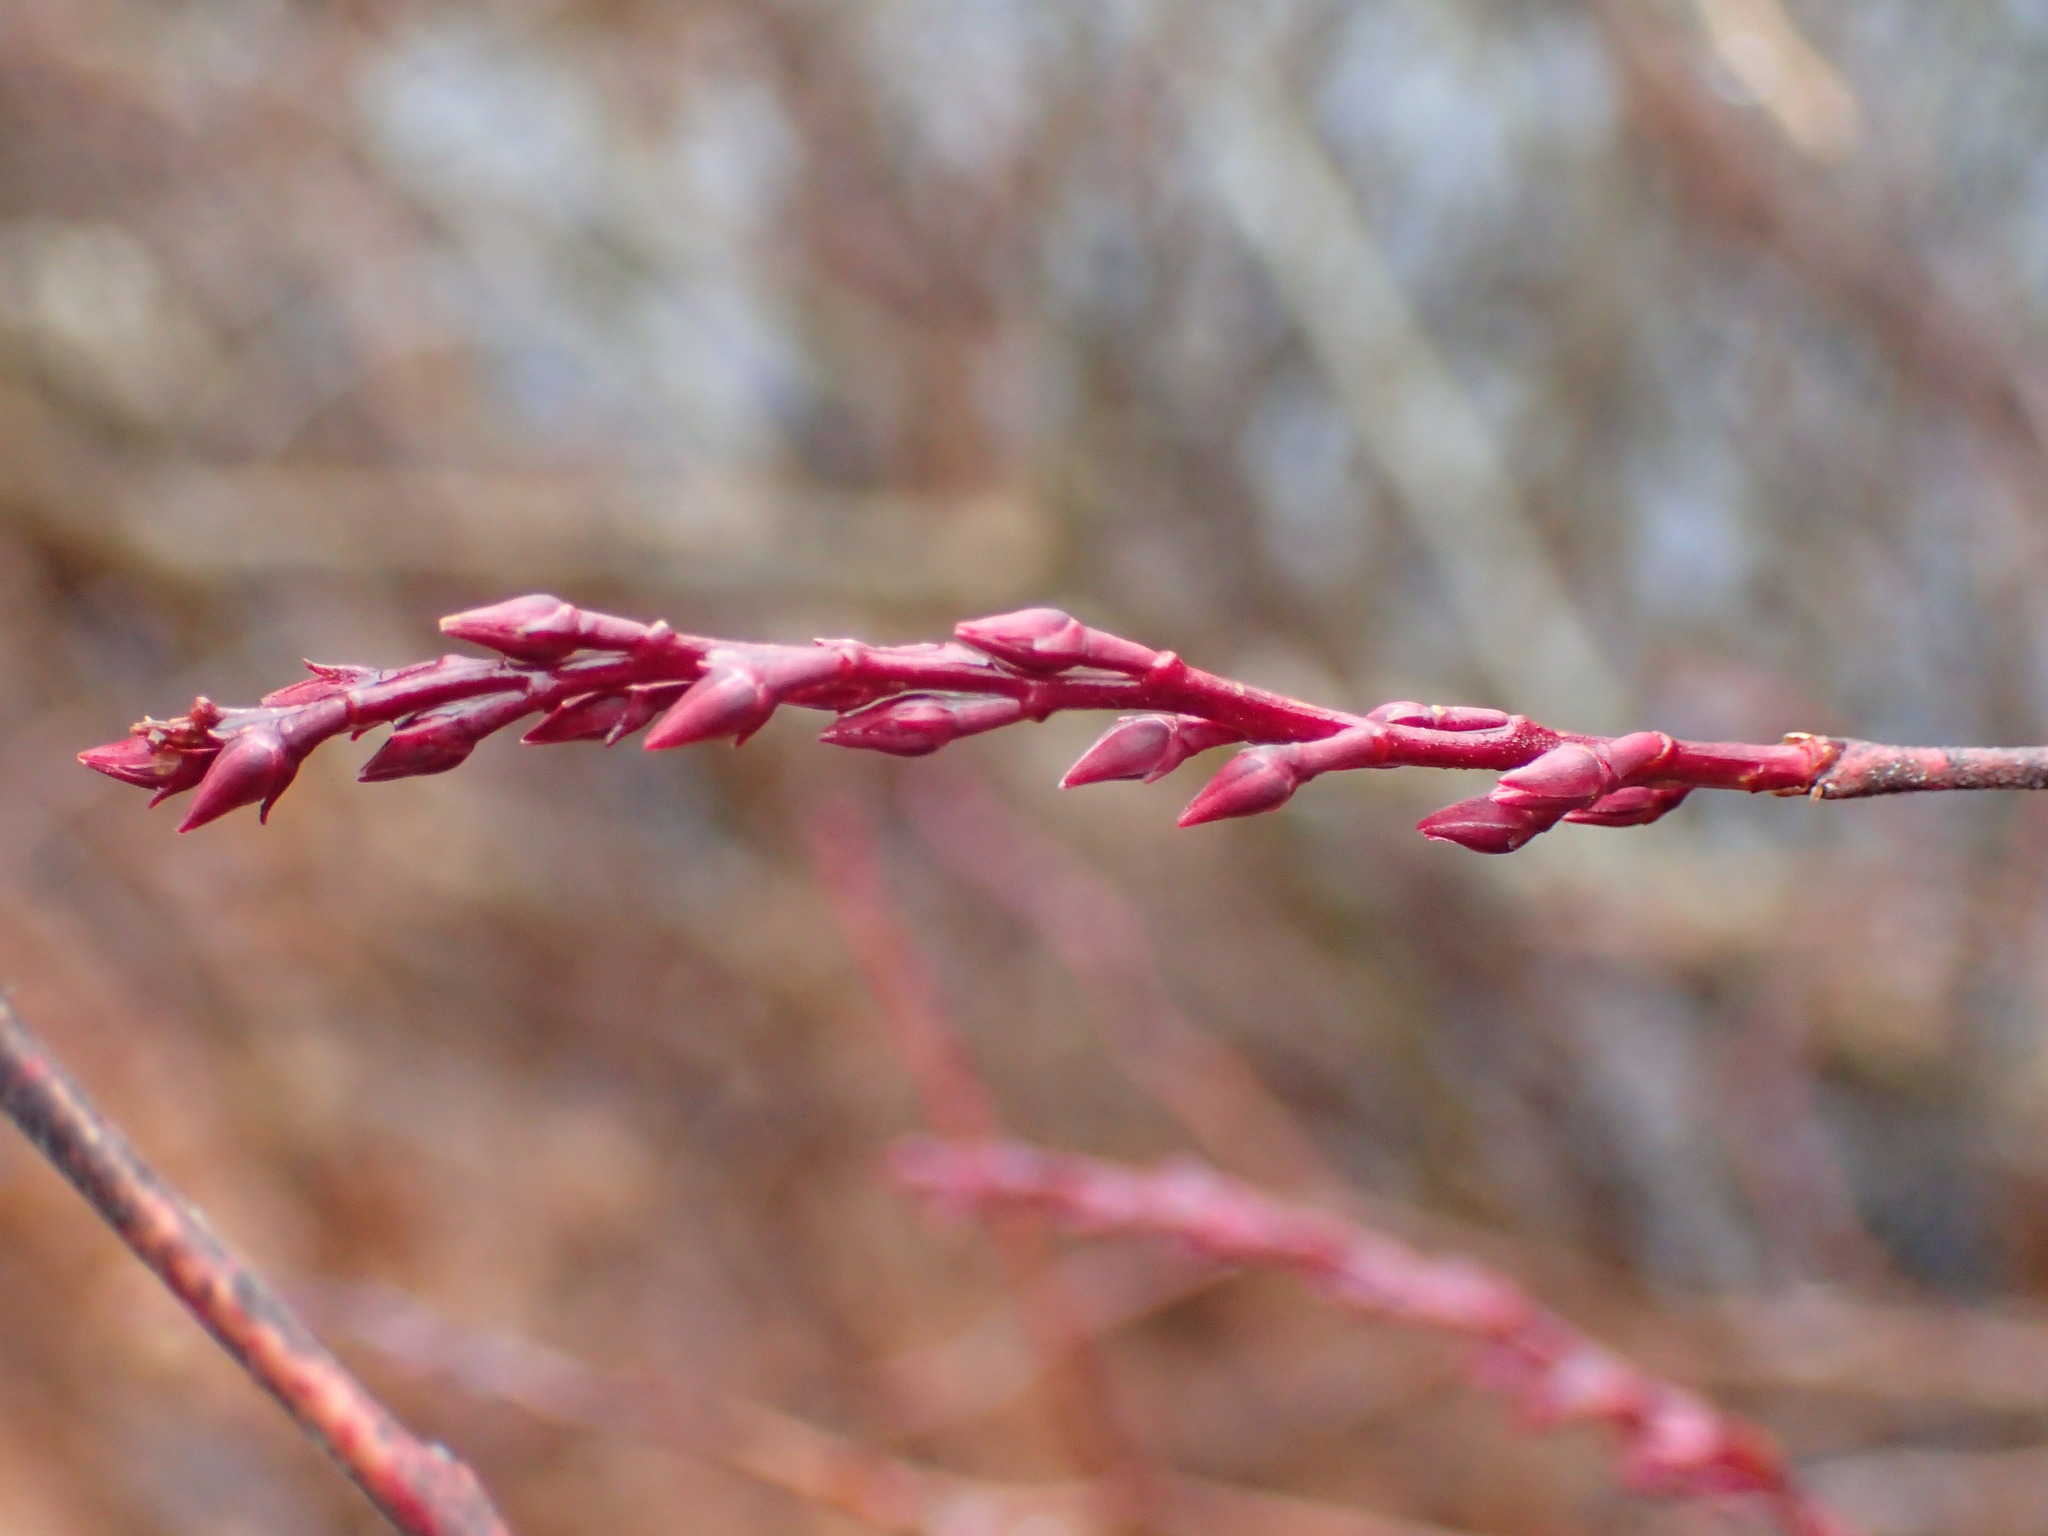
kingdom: Plantae
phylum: Tracheophyta
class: Magnoliopsida
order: Ericales
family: Ericaceae
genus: Eubotrys
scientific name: Eubotrys racemosa
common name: Fetterbush
